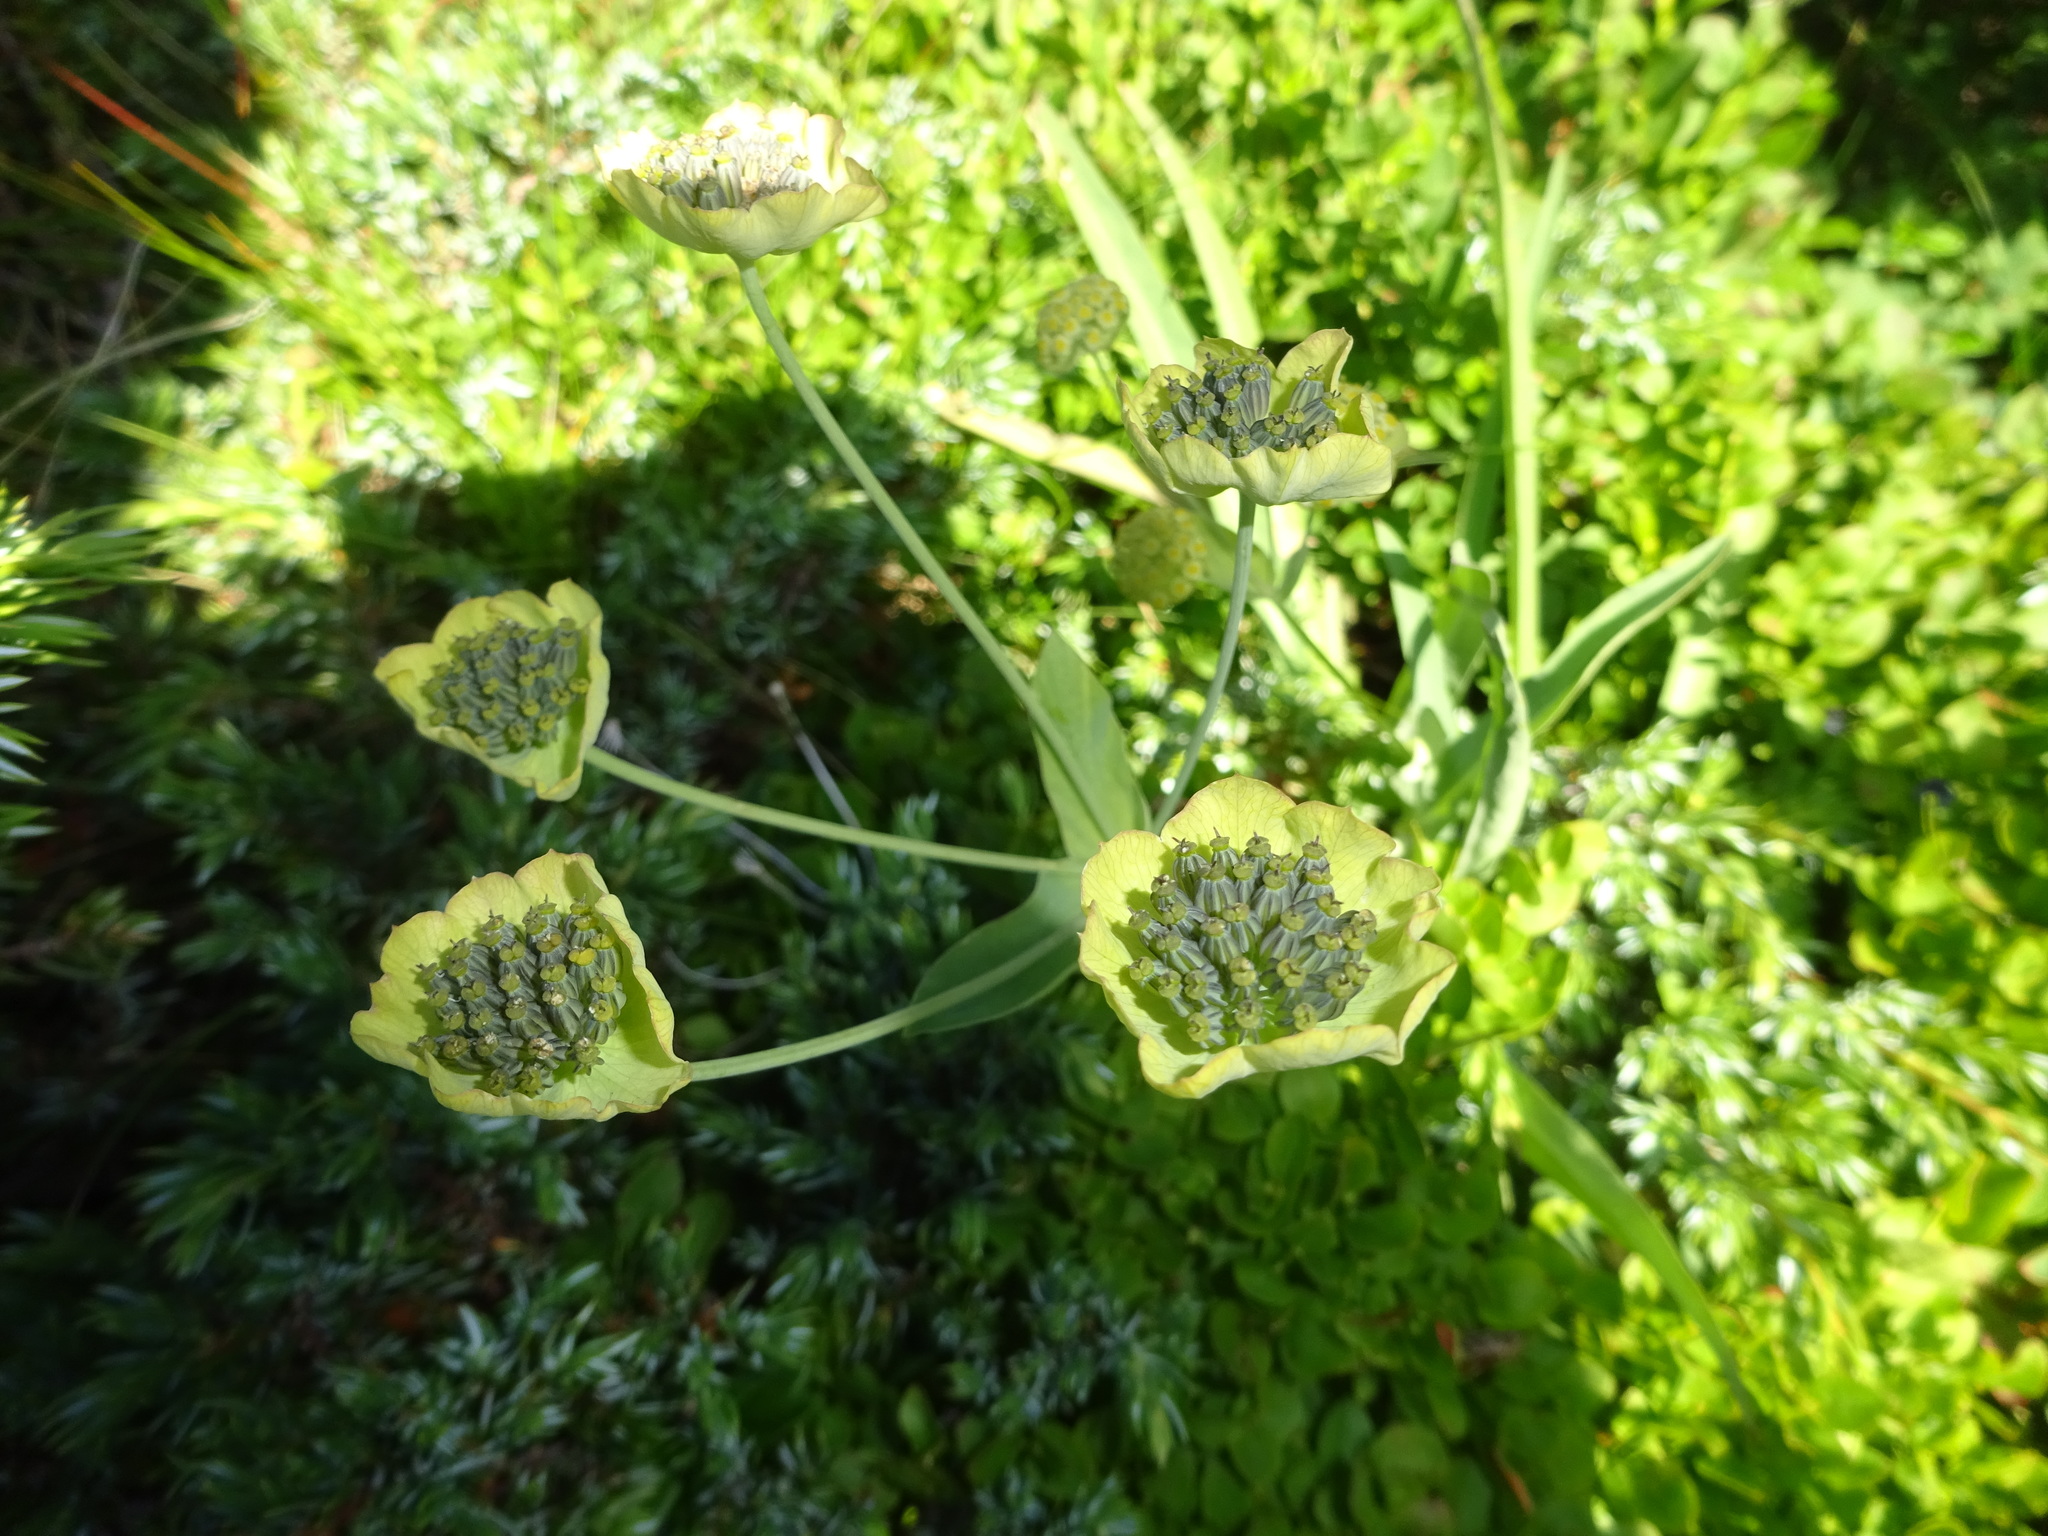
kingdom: Plantae
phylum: Tracheophyta
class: Magnoliopsida
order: Apiales
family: Apiaceae
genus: Bupleurum
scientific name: Bupleurum stellatum
